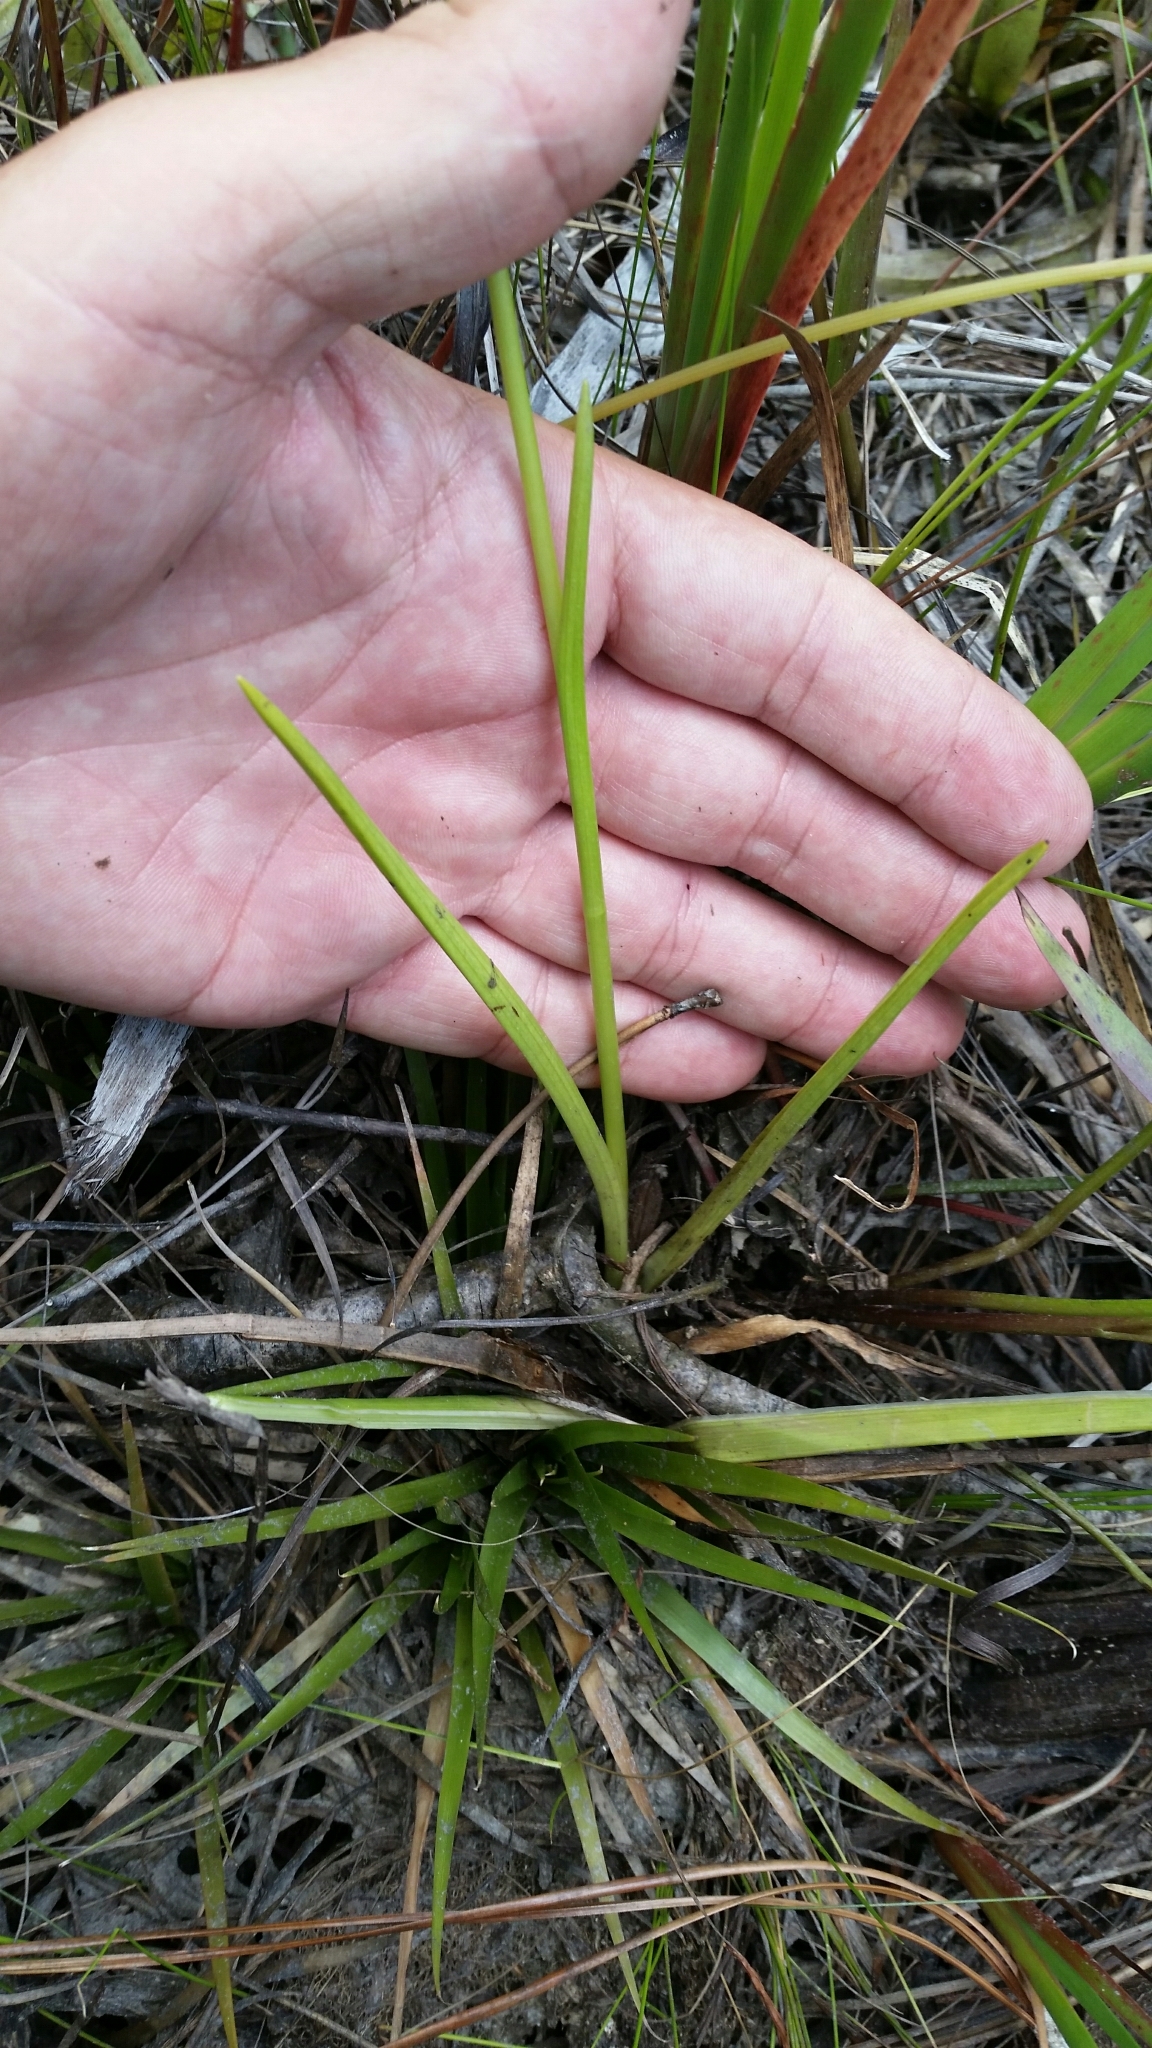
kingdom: Plantae
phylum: Tracheophyta
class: Liliopsida
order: Asparagales
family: Orchidaceae
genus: Spiranthes
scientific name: Spiranthes laciniata
